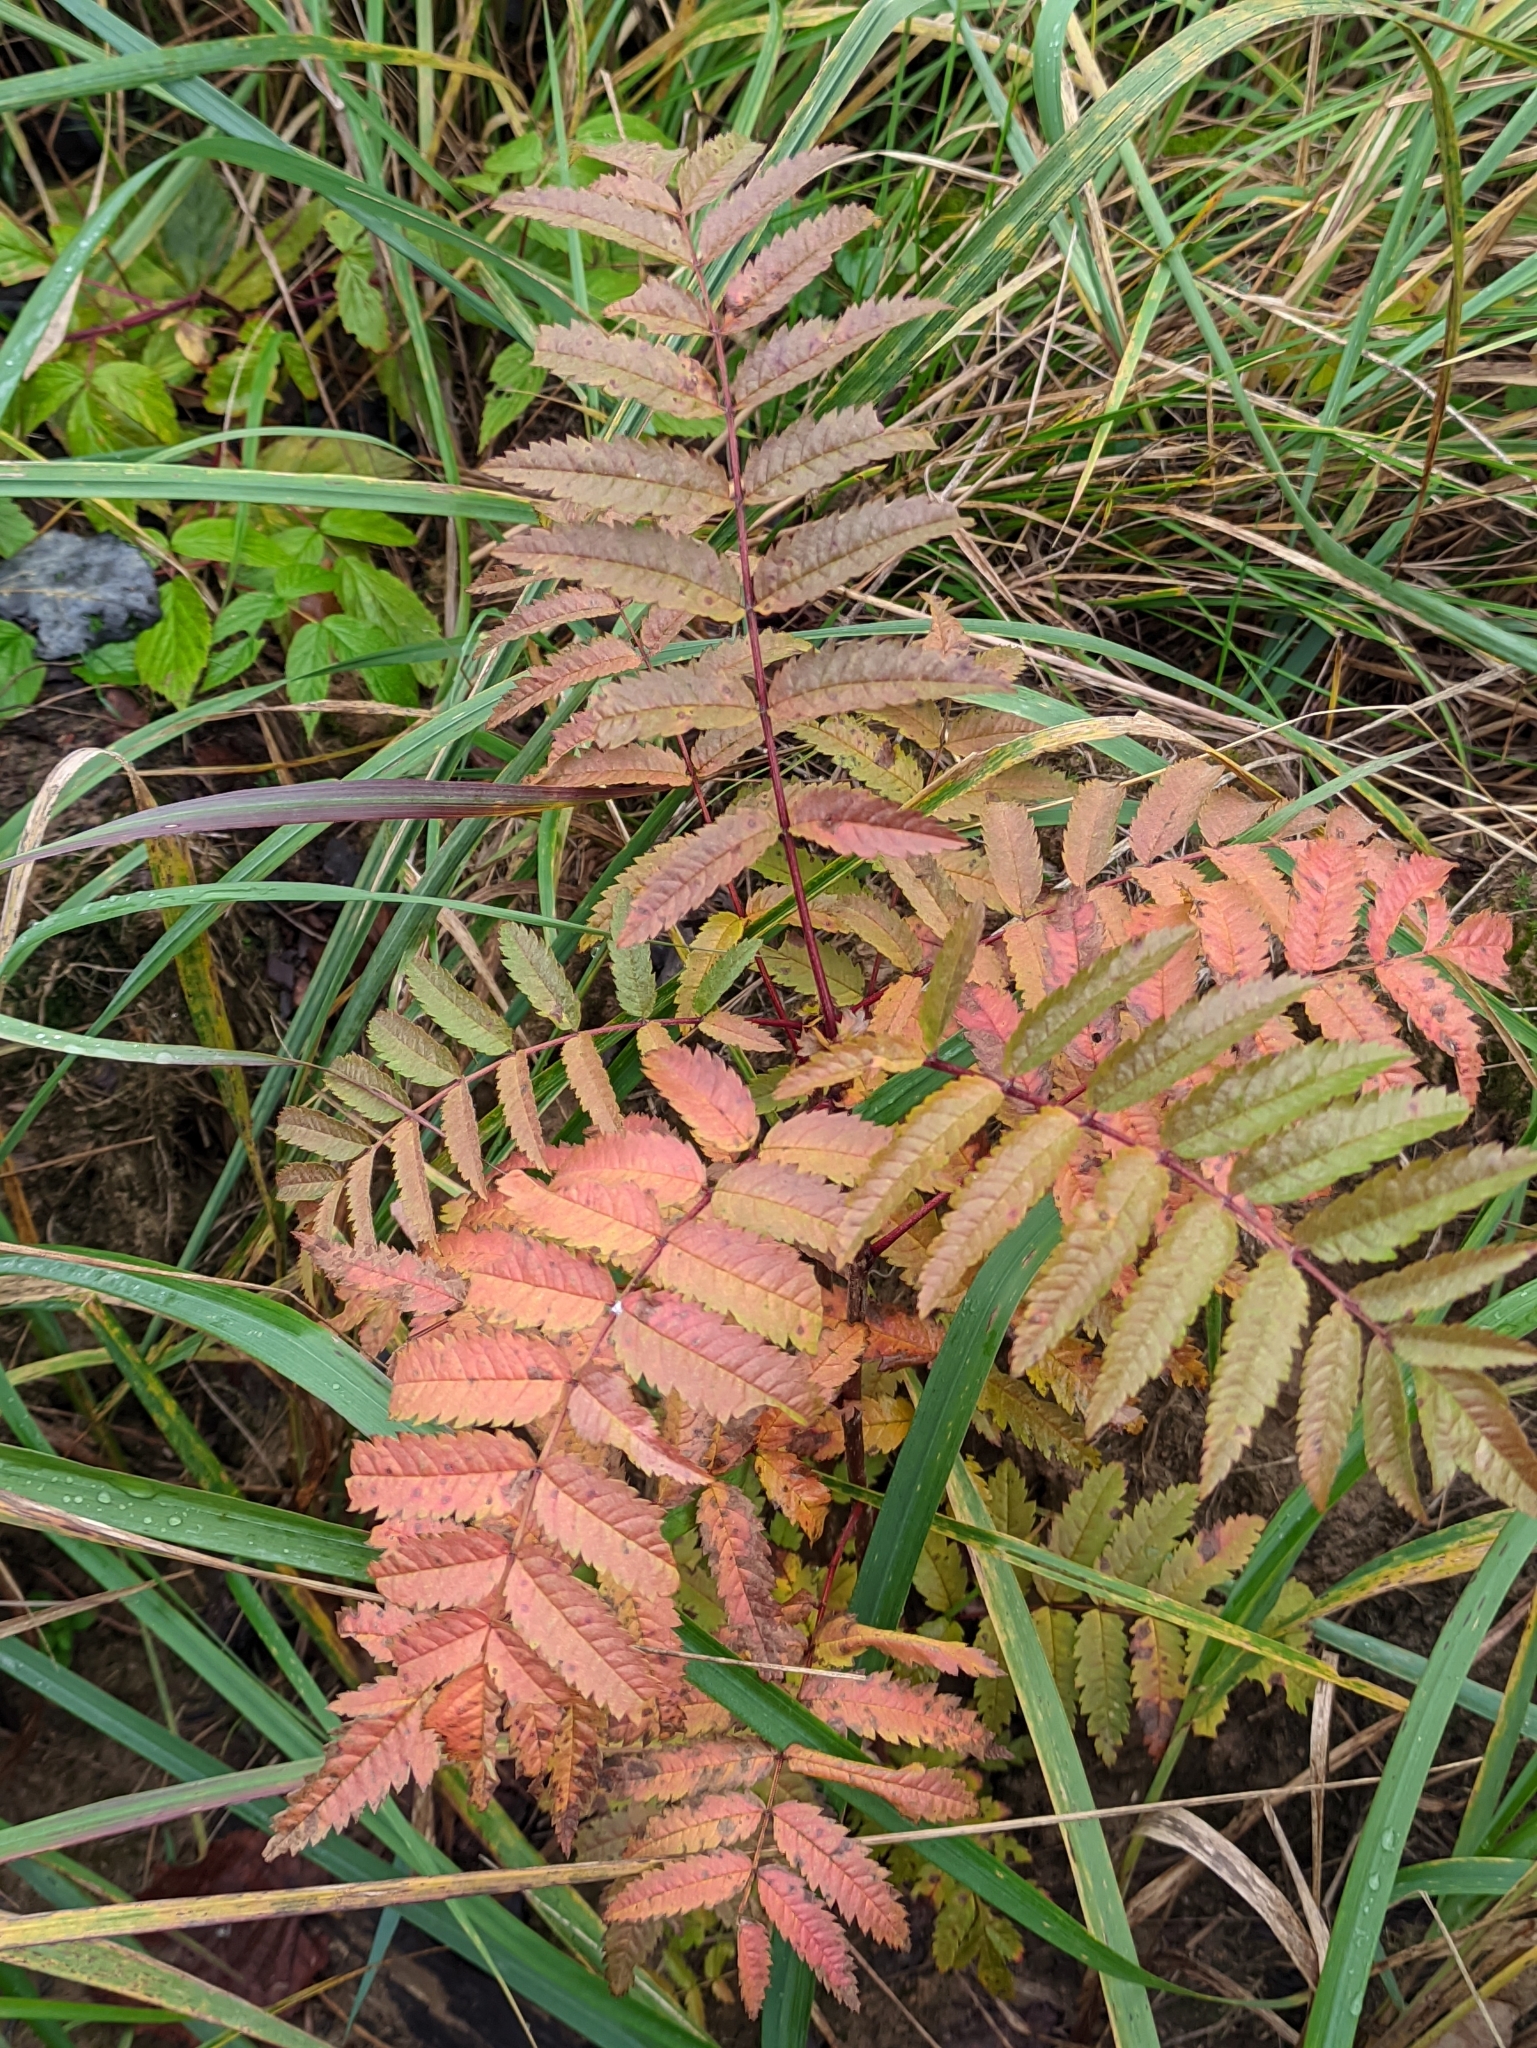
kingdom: Plantae
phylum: Tracheophyta
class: Magnoliopsida
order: Rosales
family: Rosaceae
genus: Sorbus
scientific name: Sorbus aucuparia
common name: Rowan
